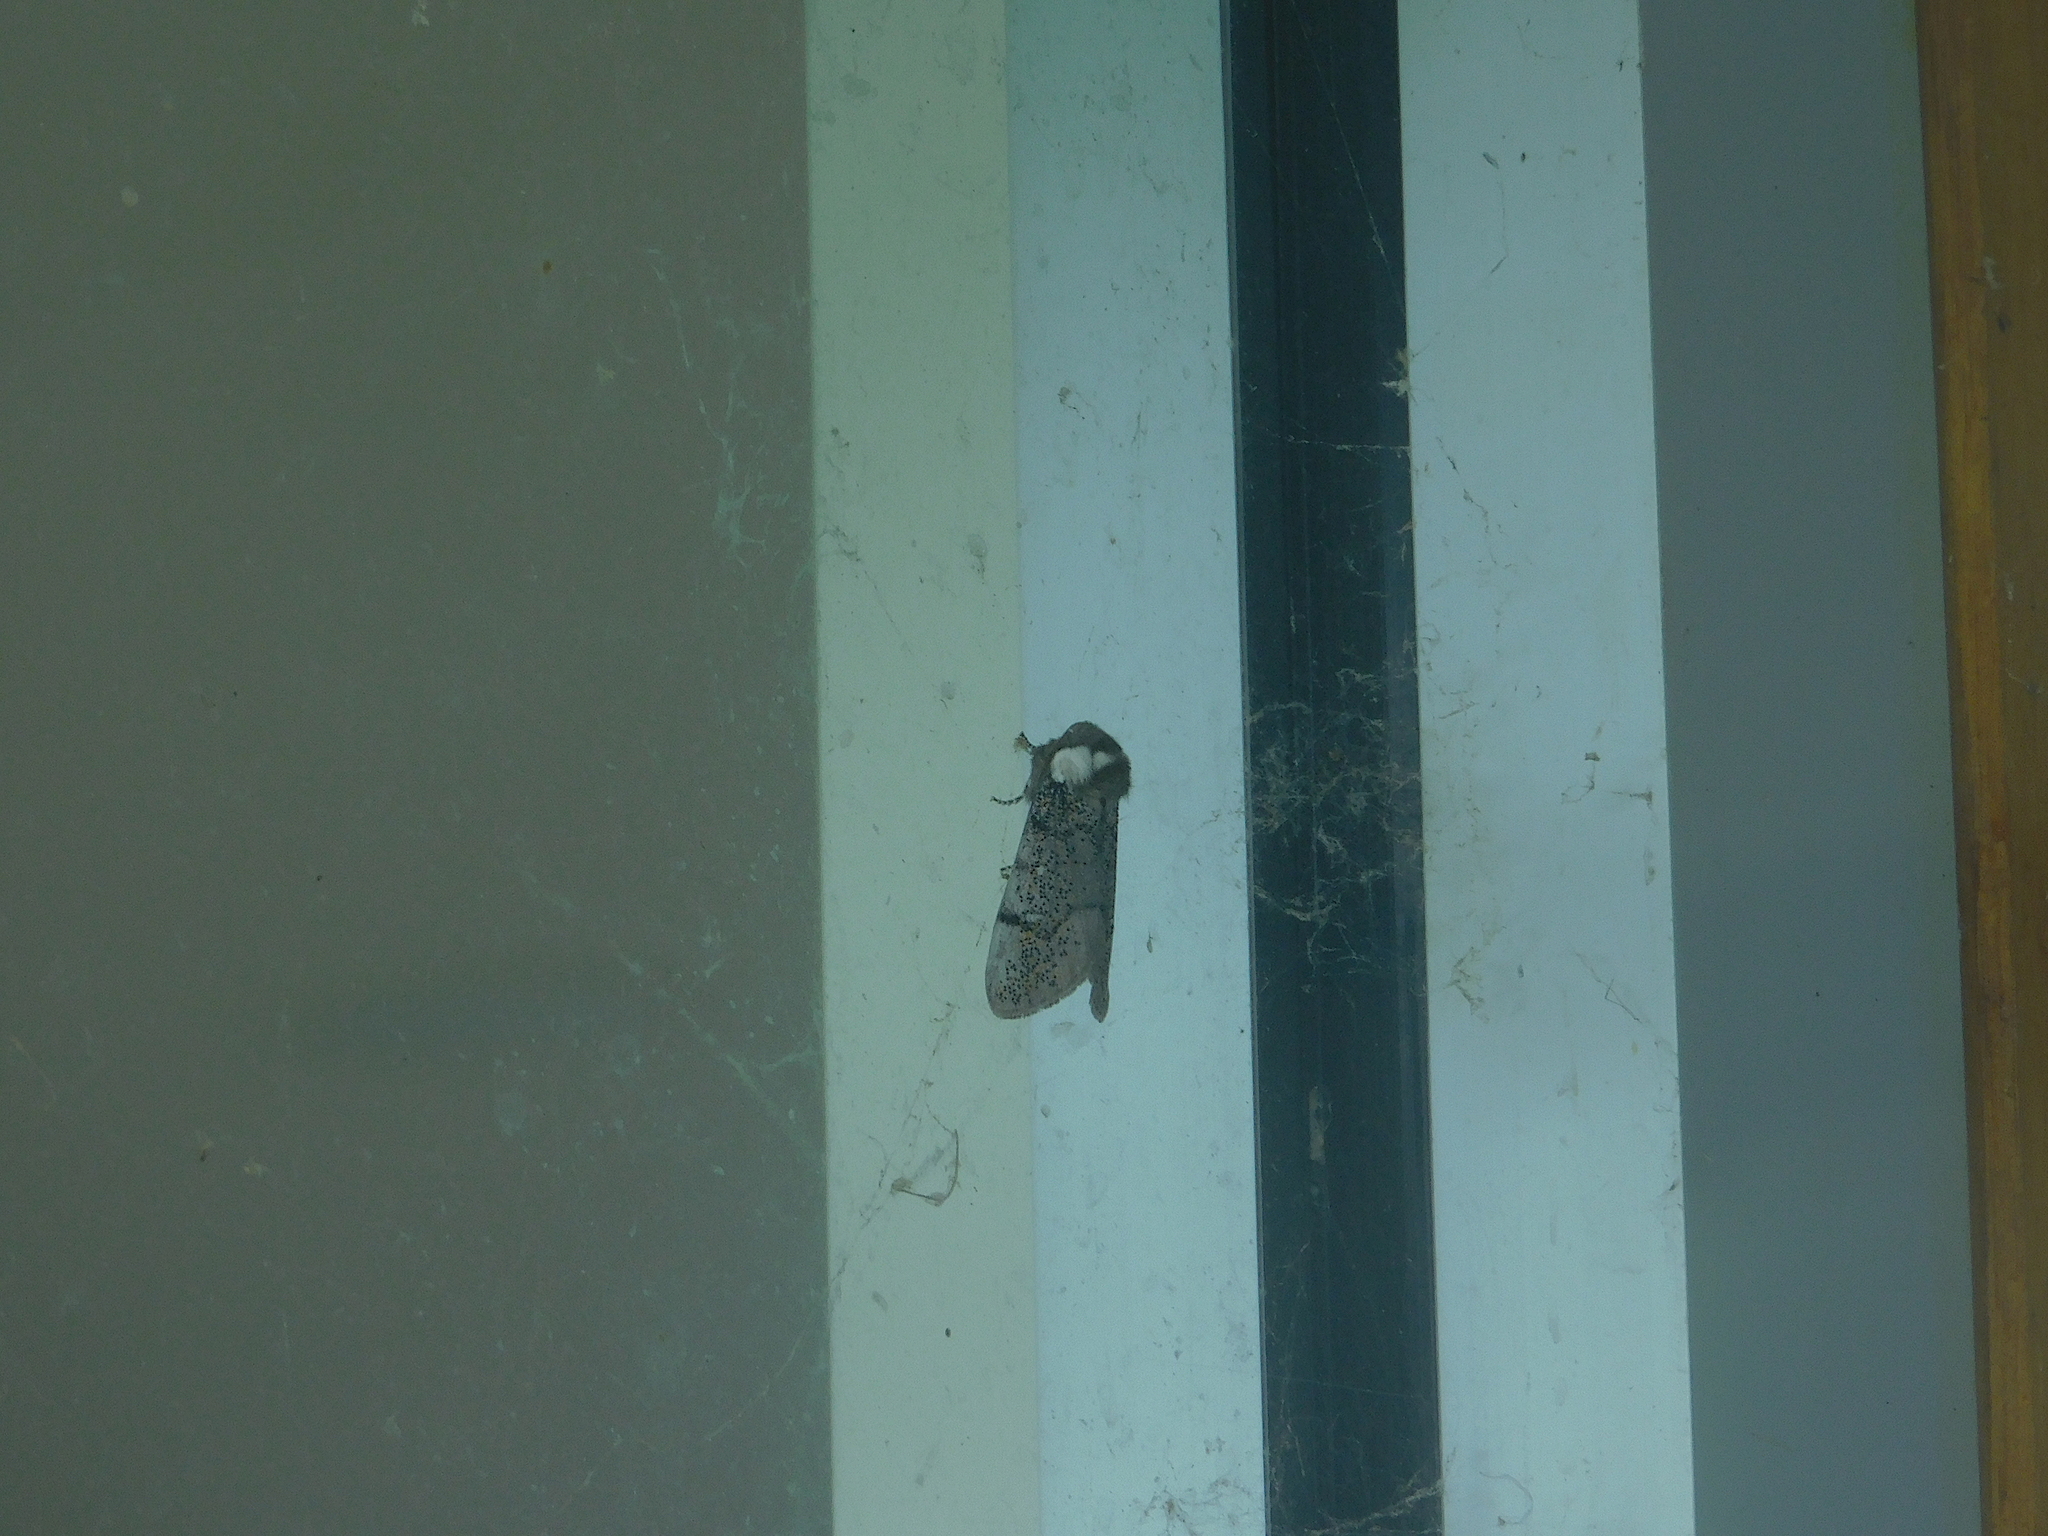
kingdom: Animalia
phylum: Arthropoda
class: Insecta
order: Lepidoptera
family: Oenosandridae
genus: Oenosandra
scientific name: Oenosandra boisduvalii
